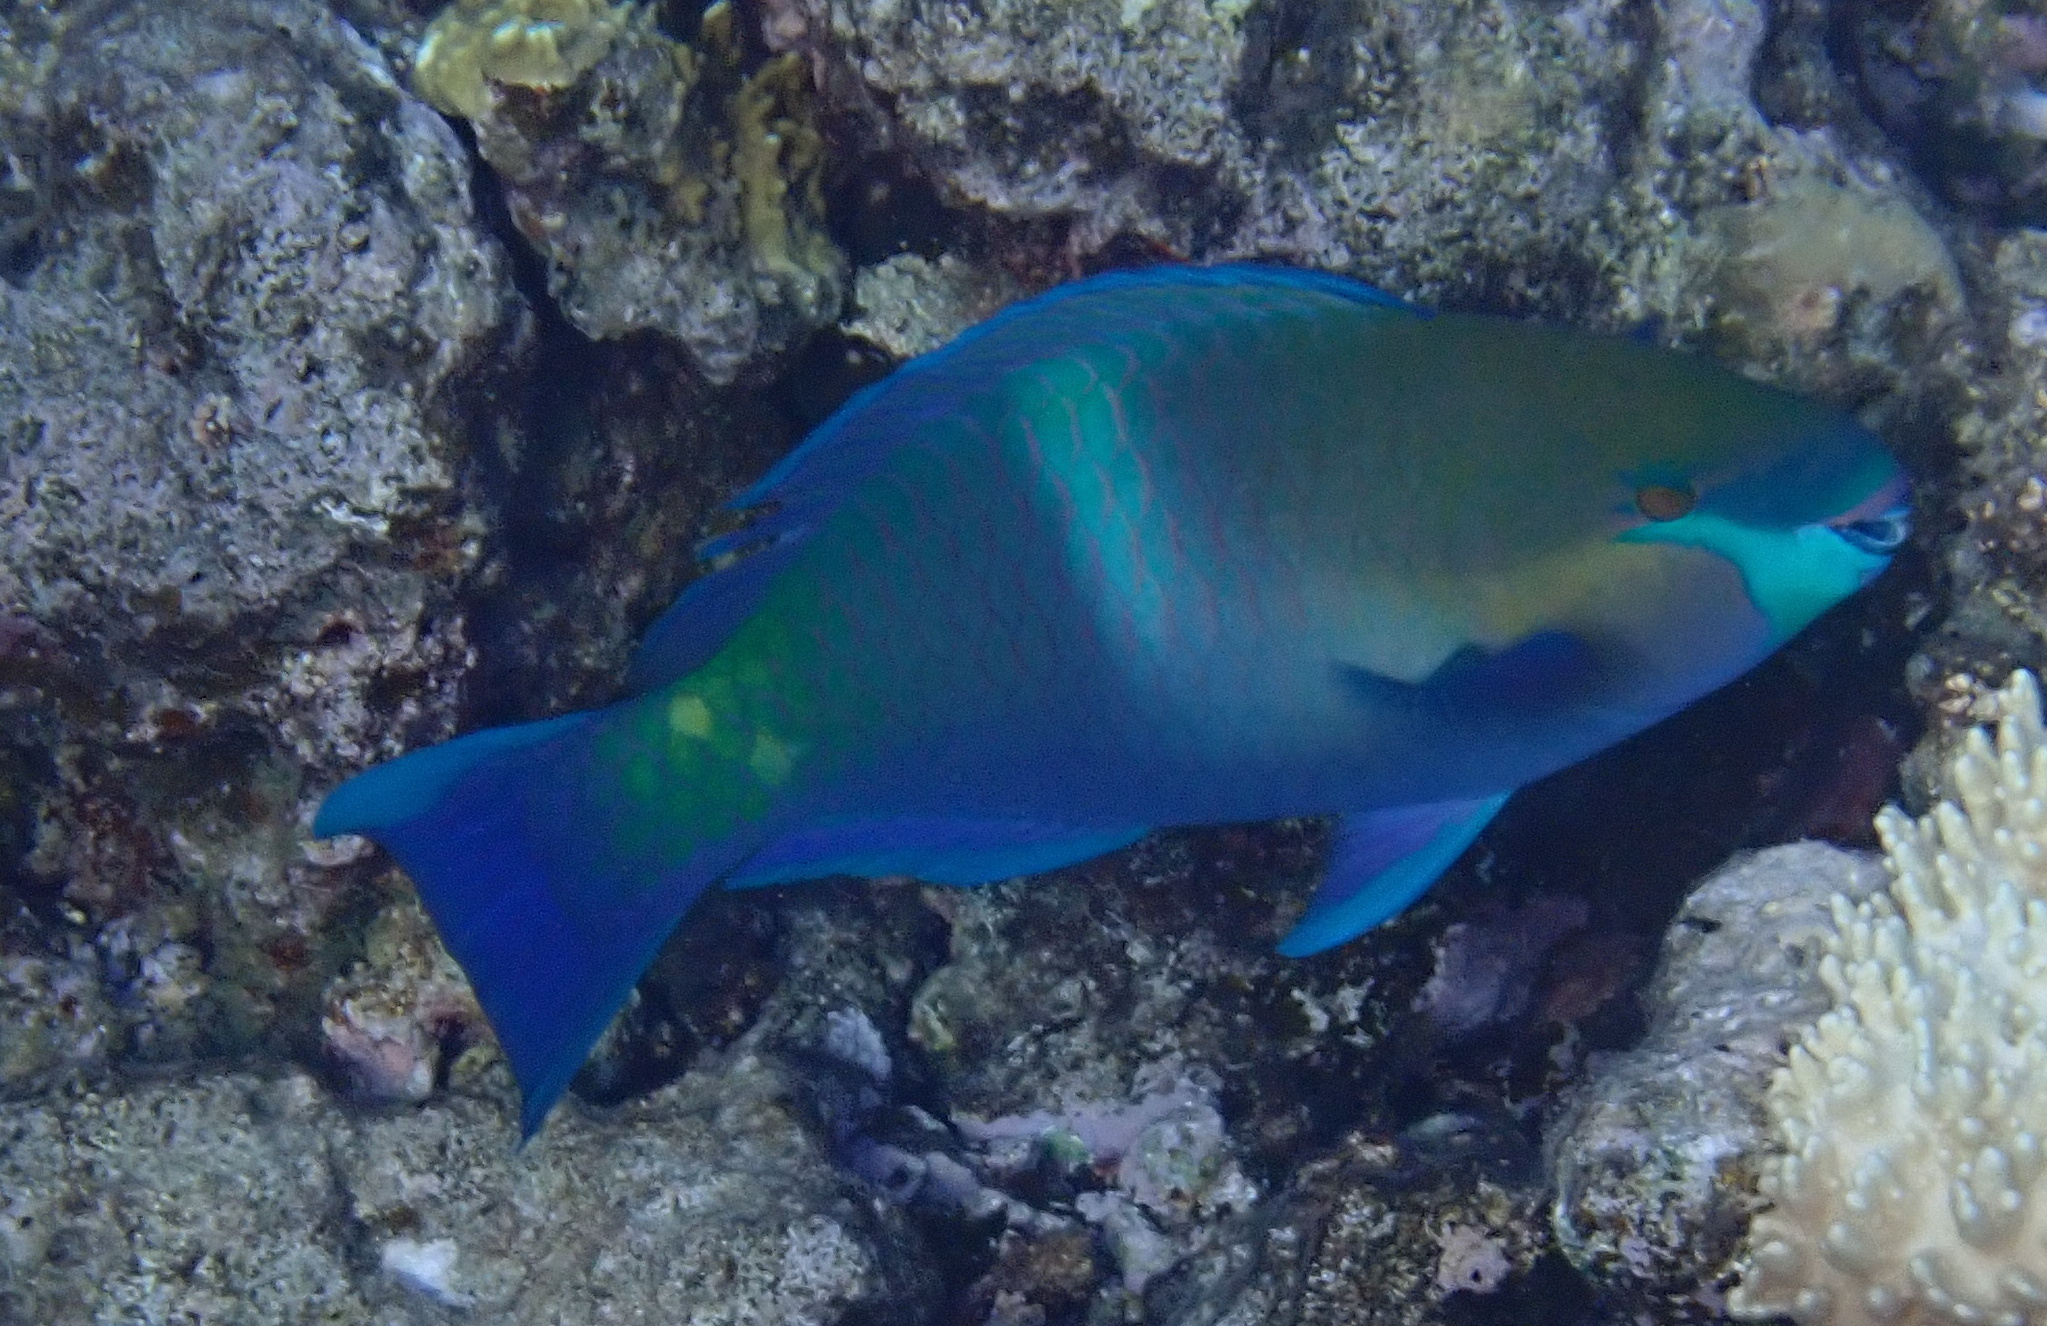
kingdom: Animalia
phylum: Chordata
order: Perciformes
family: Scaridae
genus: Scarus
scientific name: Scarus ferrugineus
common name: Rusty parrotfish
